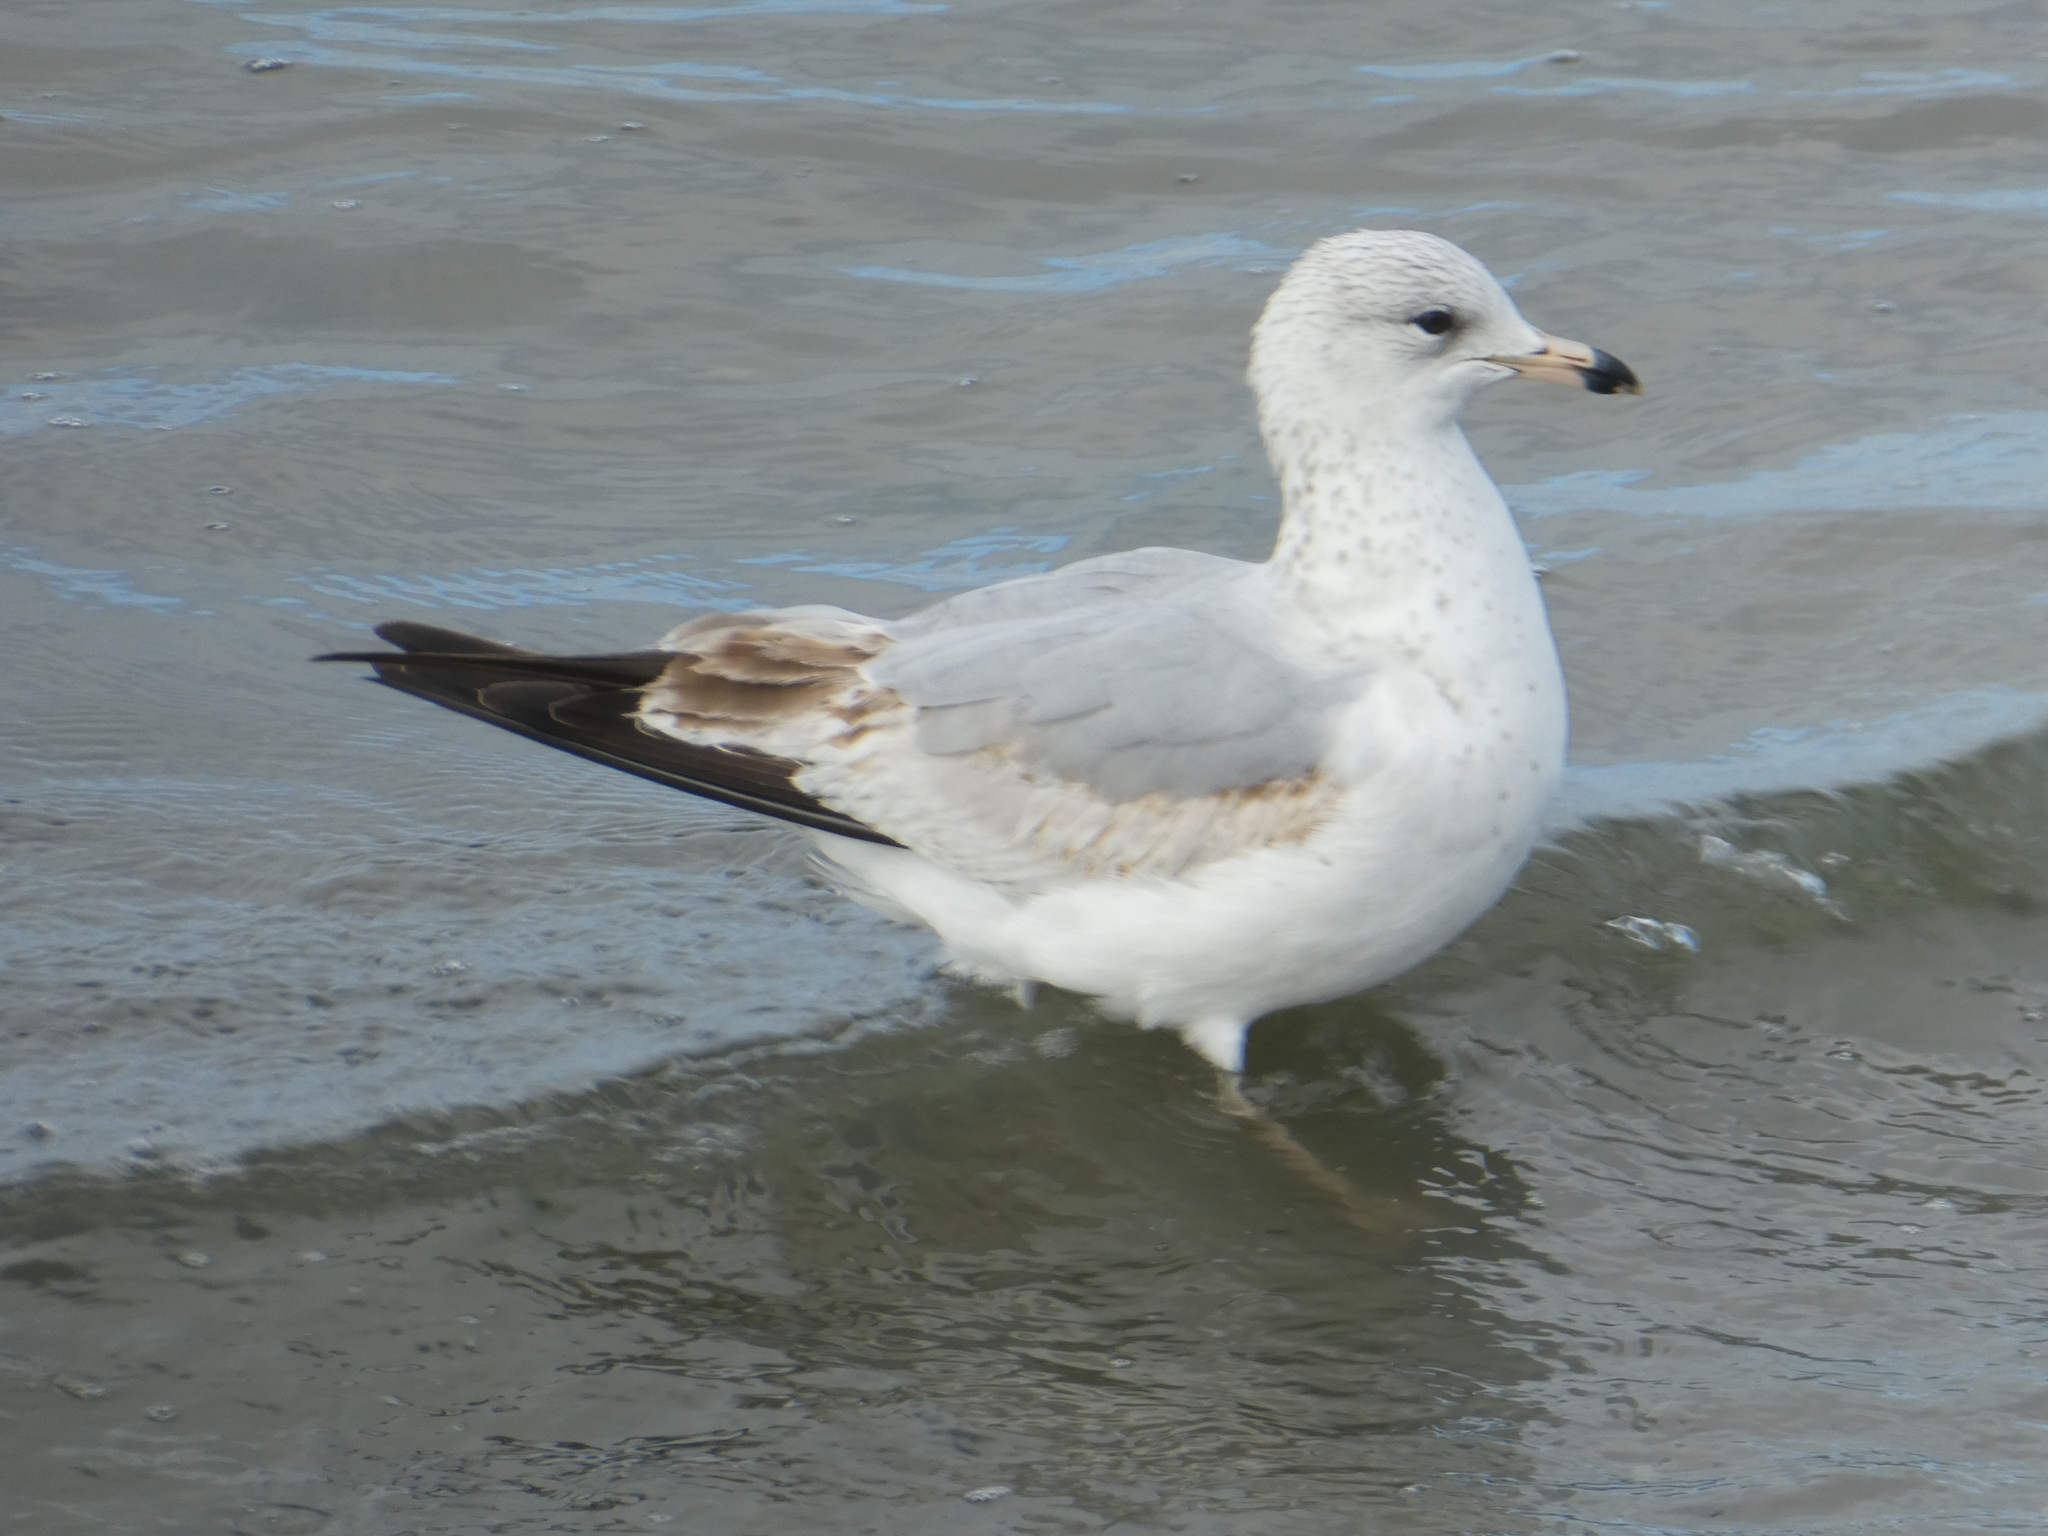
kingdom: Animalia
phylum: Chordata
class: Aves
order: Charadriiformes
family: Laridae
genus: Larus
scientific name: Larus delawarensis
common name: Ring-billed gull
